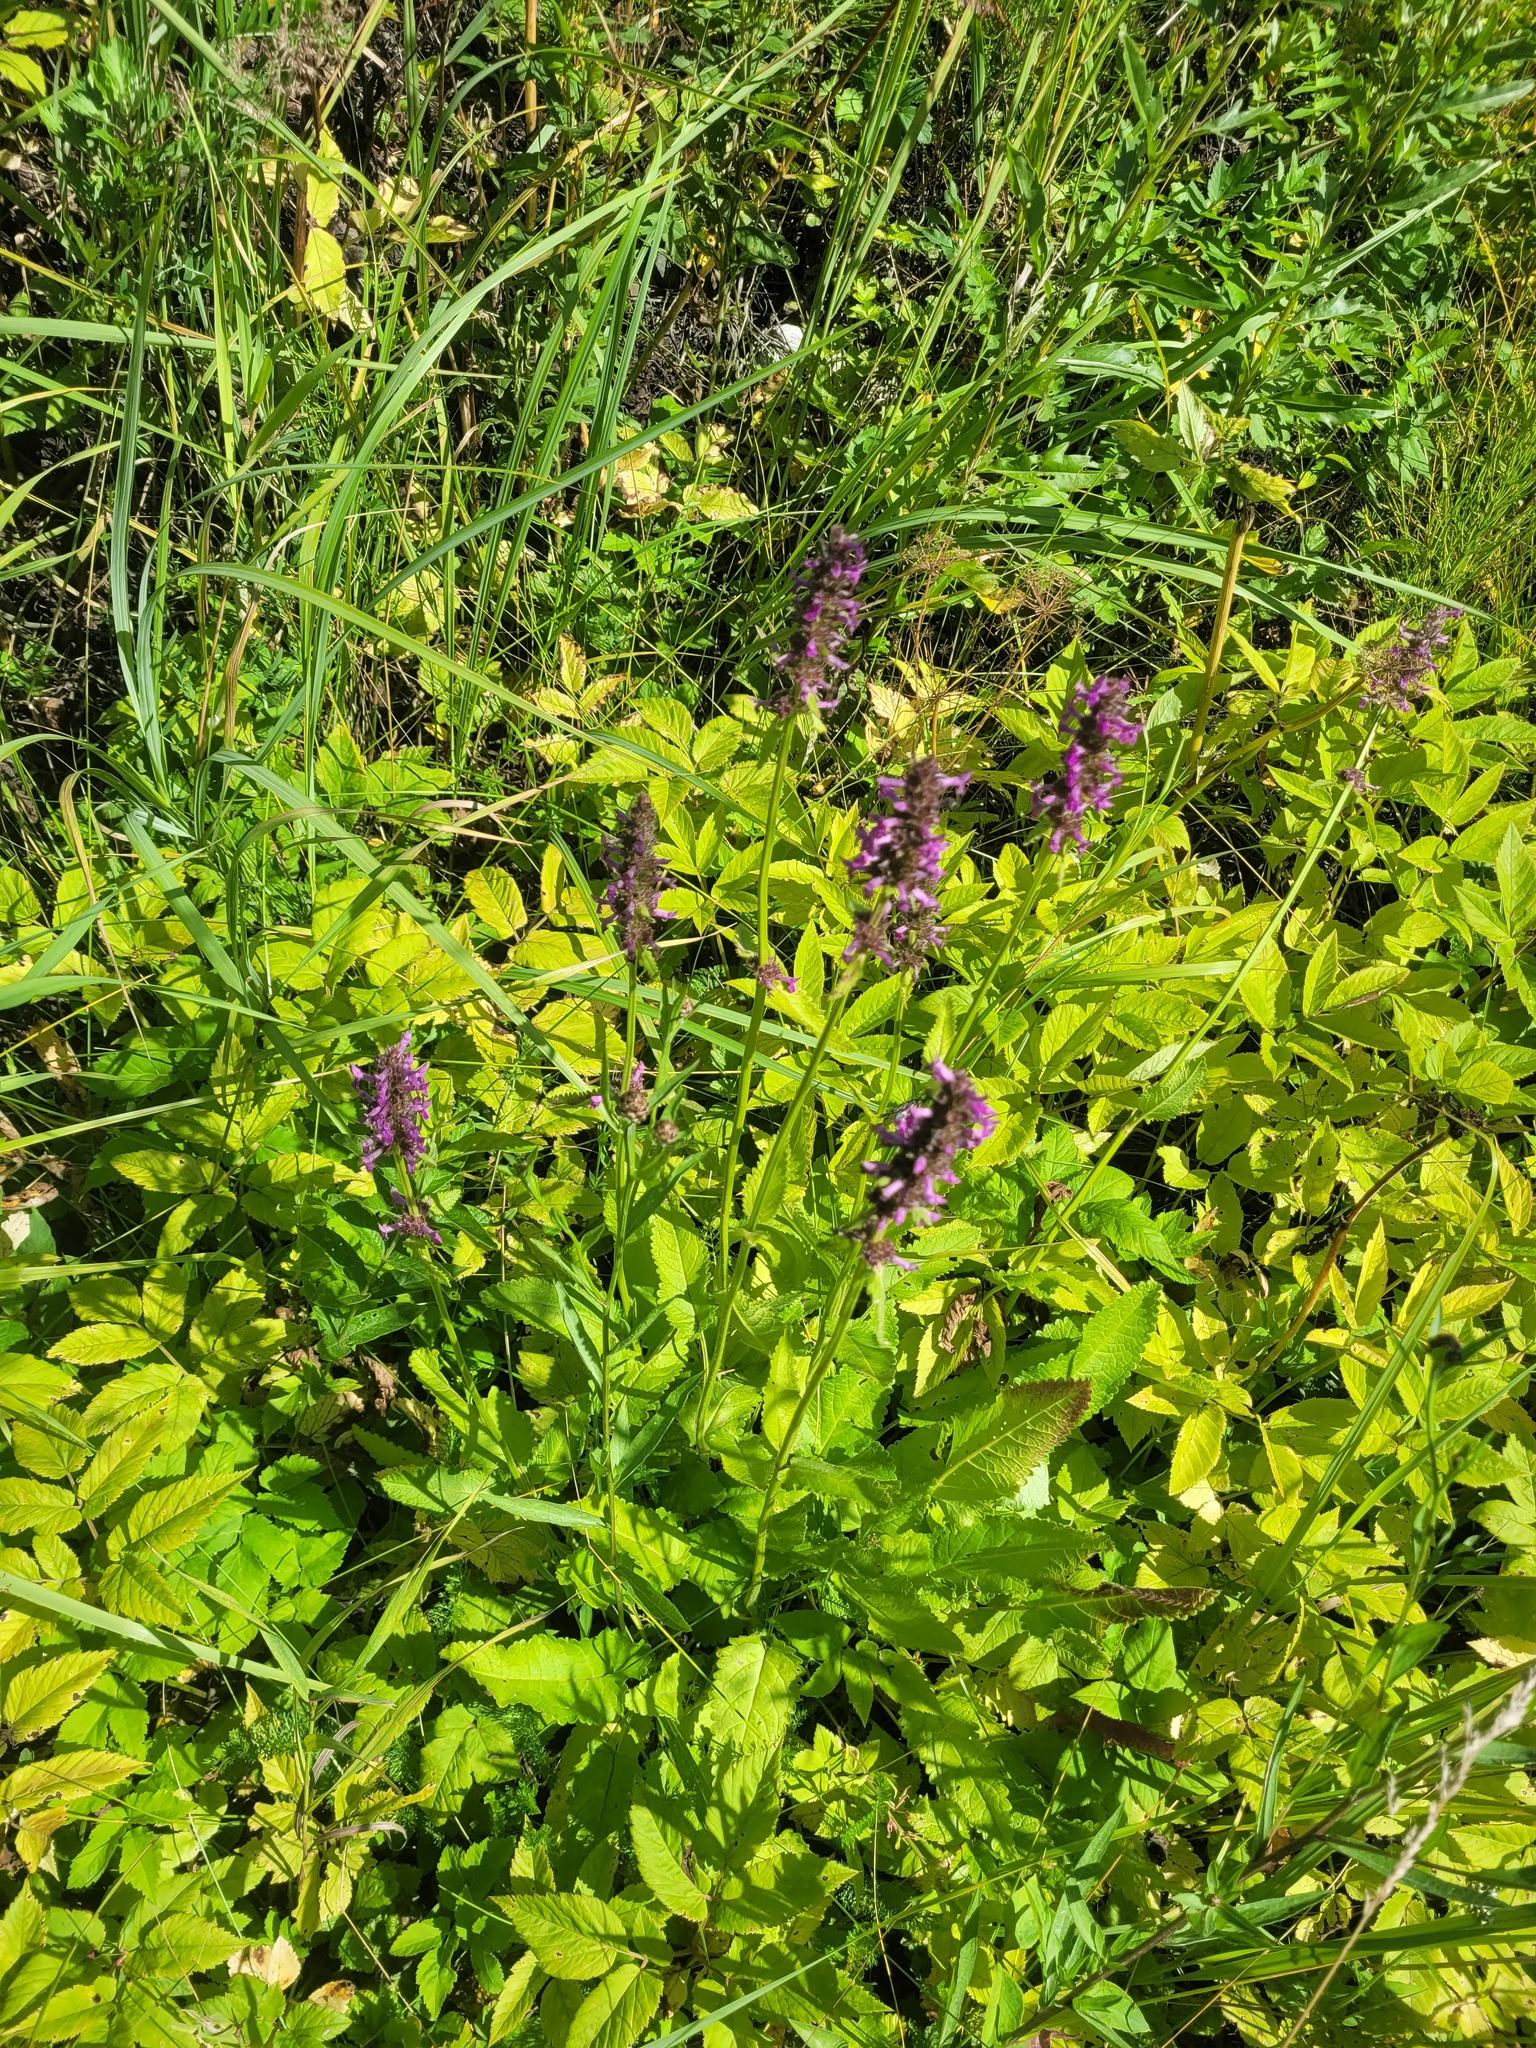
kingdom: Plantae
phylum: Tracheophyta
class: Magnoliopsida
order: Lamiales
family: Lamiaceae
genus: Betonica
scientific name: Betonica officinalis
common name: Bishop's-wort
